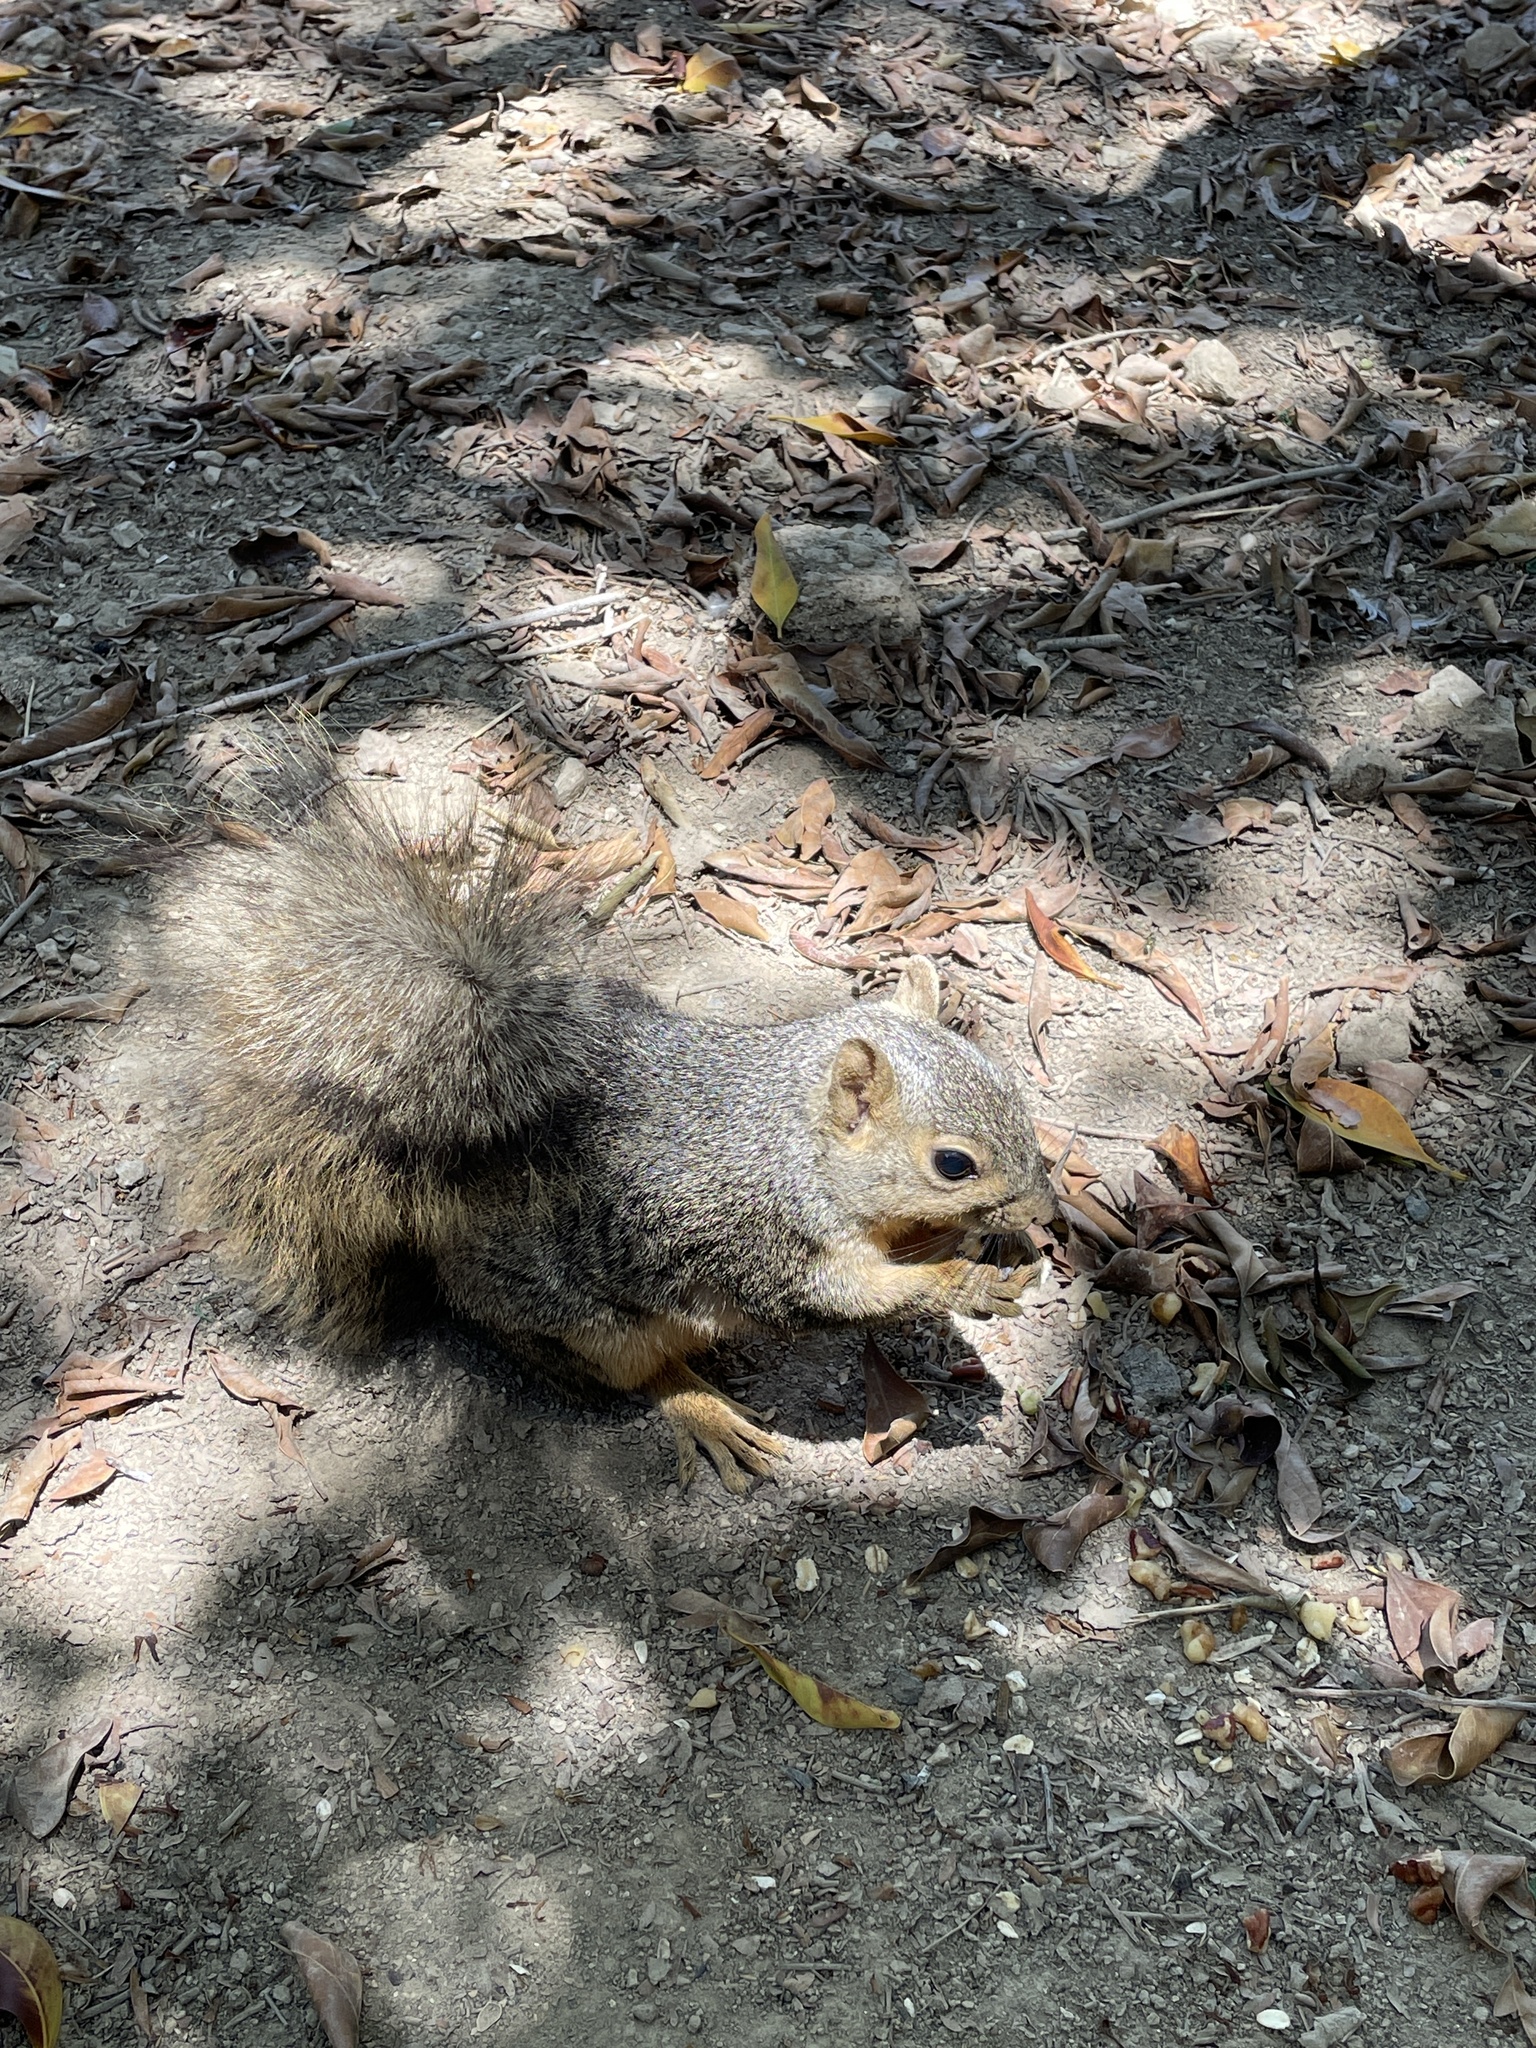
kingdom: Animalia
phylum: Chordata
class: Mammalia
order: Rodentia
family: Sciuridae
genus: Sciurus
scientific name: Sciurus niger
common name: Fox squirrel
